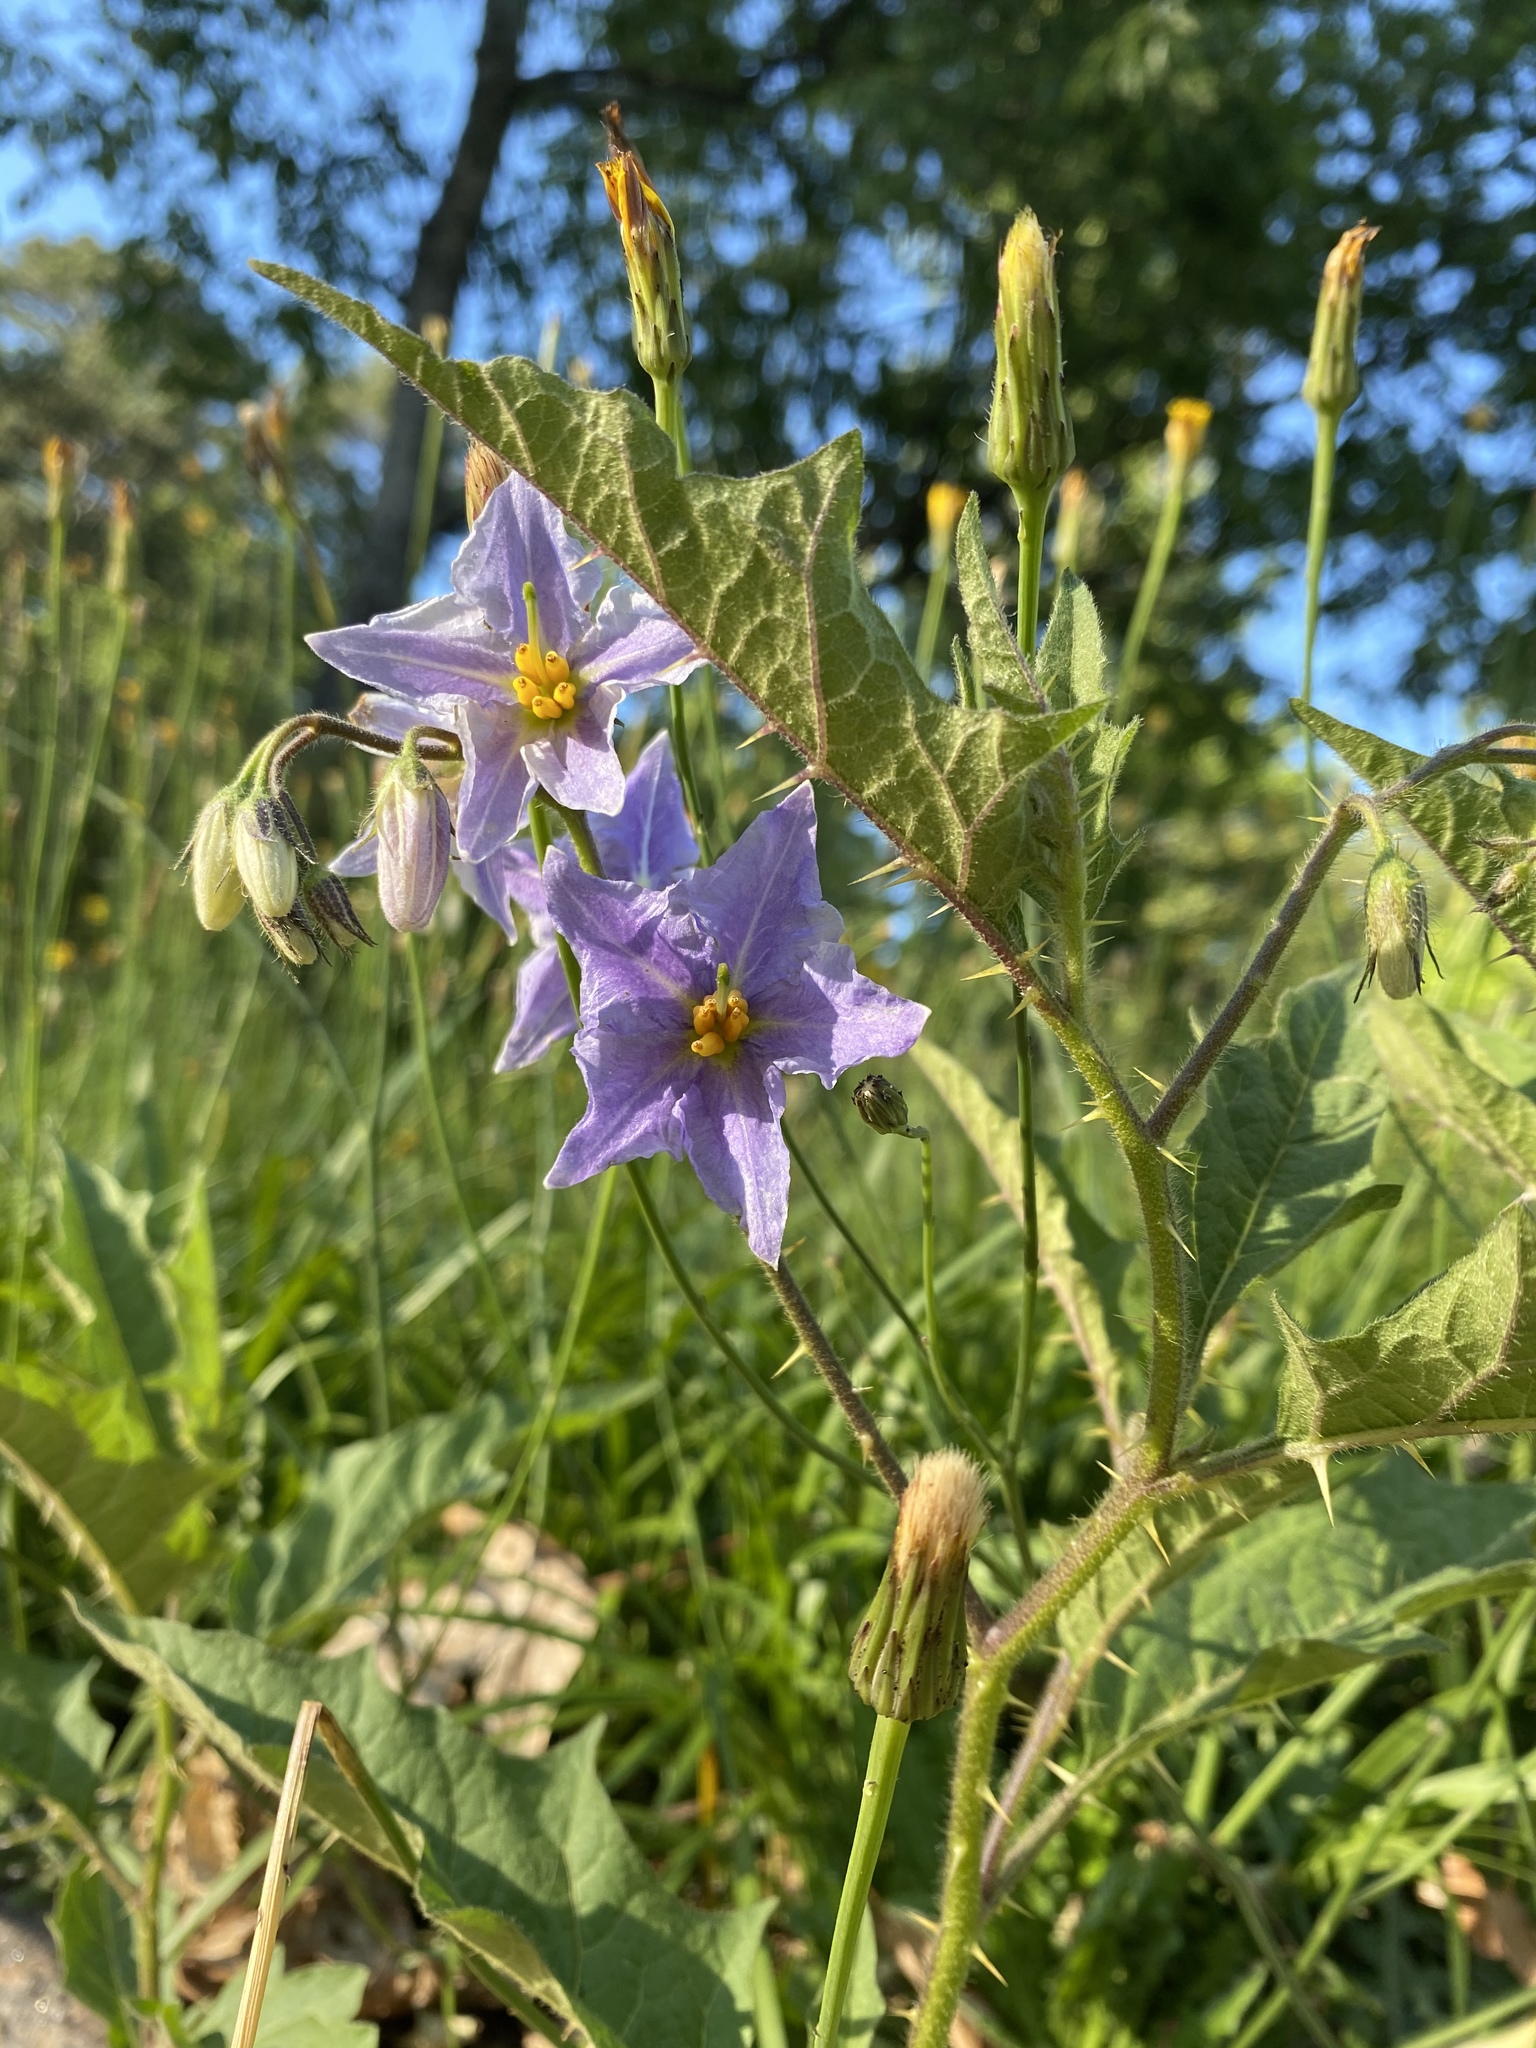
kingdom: Plantae
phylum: Tracheophyta
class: Magnoliopsida
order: Solanales
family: Solanaceae
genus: Solanum
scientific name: Solanum carolinense
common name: Horse-nettle
